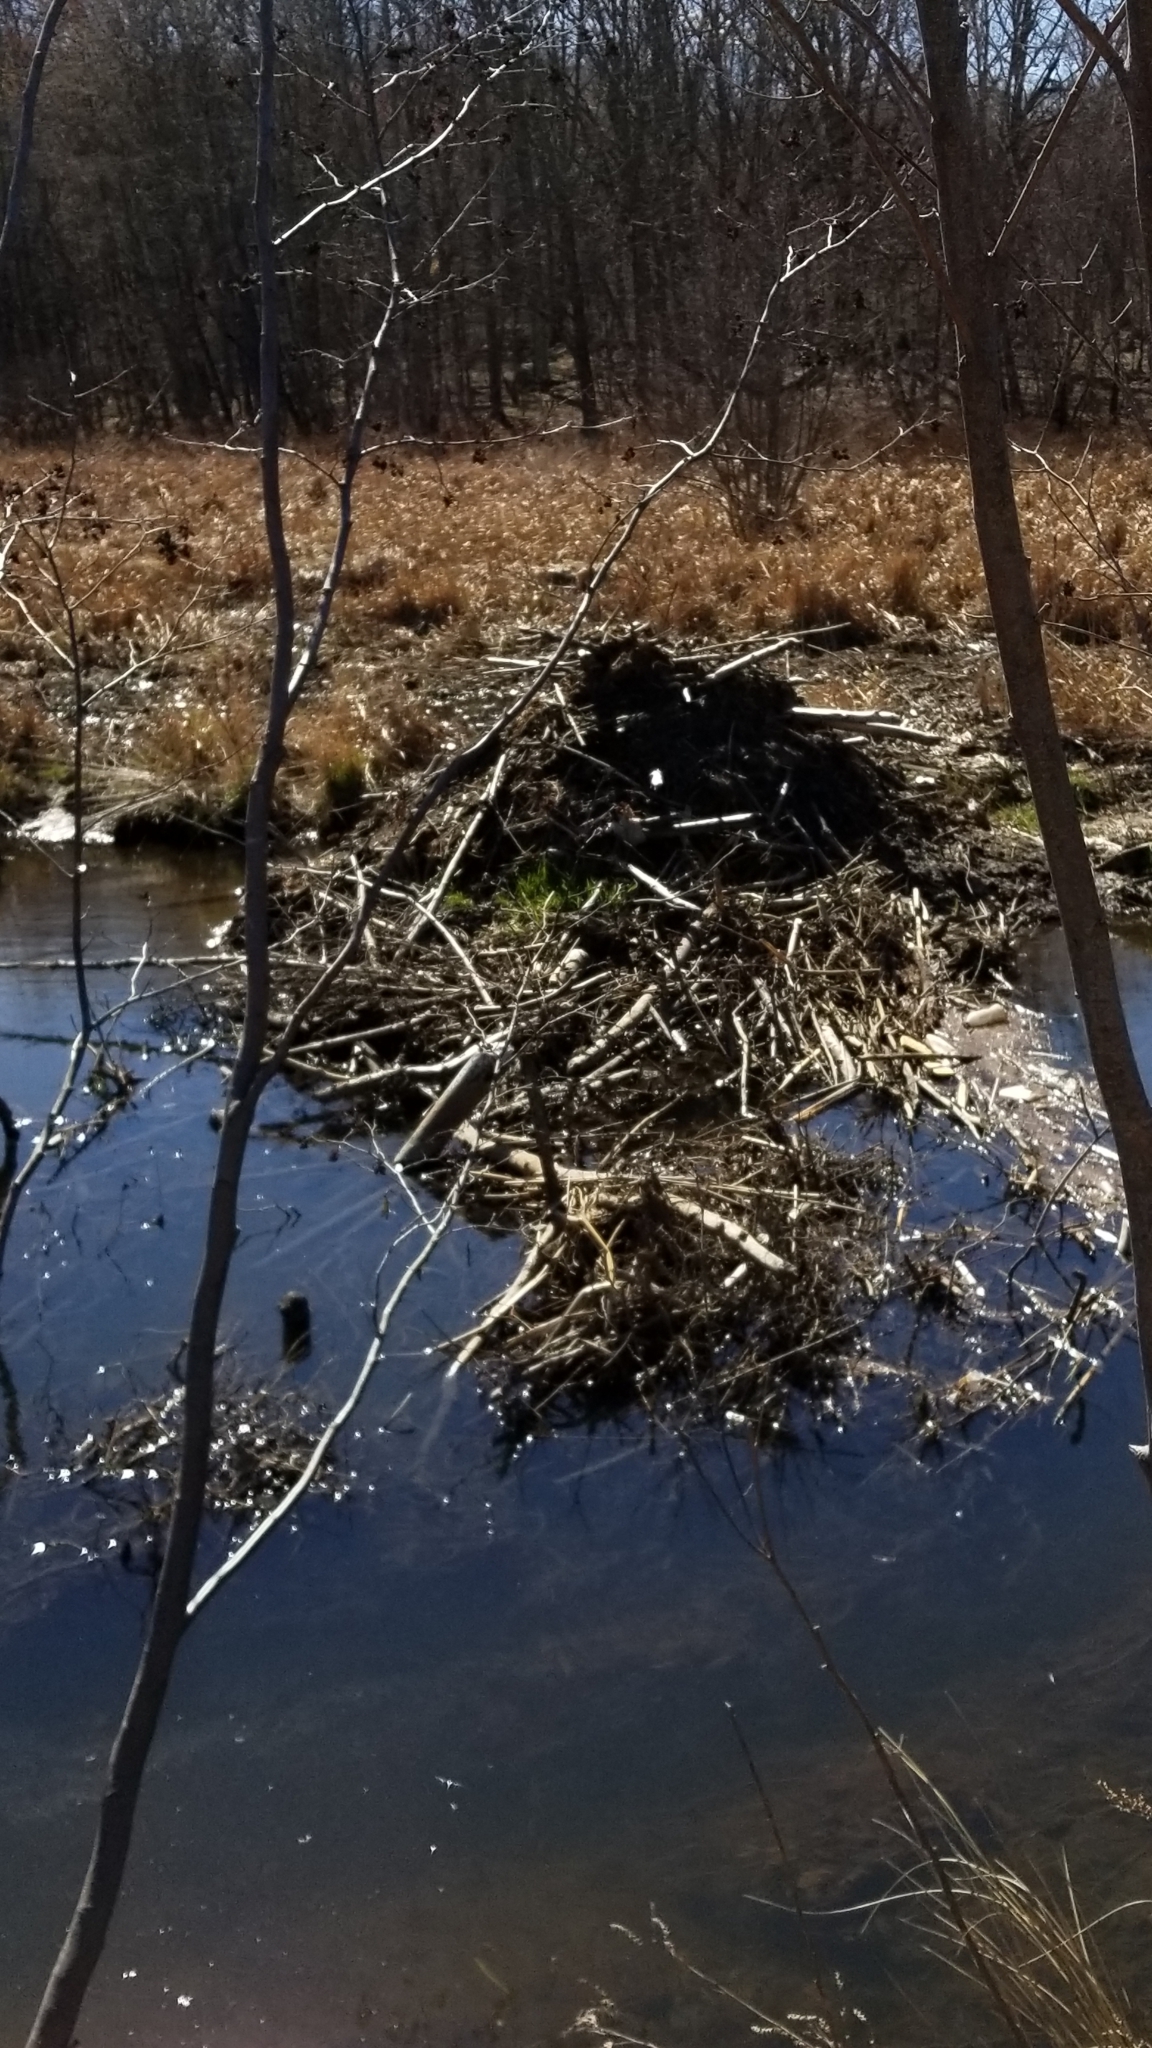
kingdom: Animalia
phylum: Chordata
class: Mammalia
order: Rodentia
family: Castoridae
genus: Castor
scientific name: Castor canadensis
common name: American beaver
